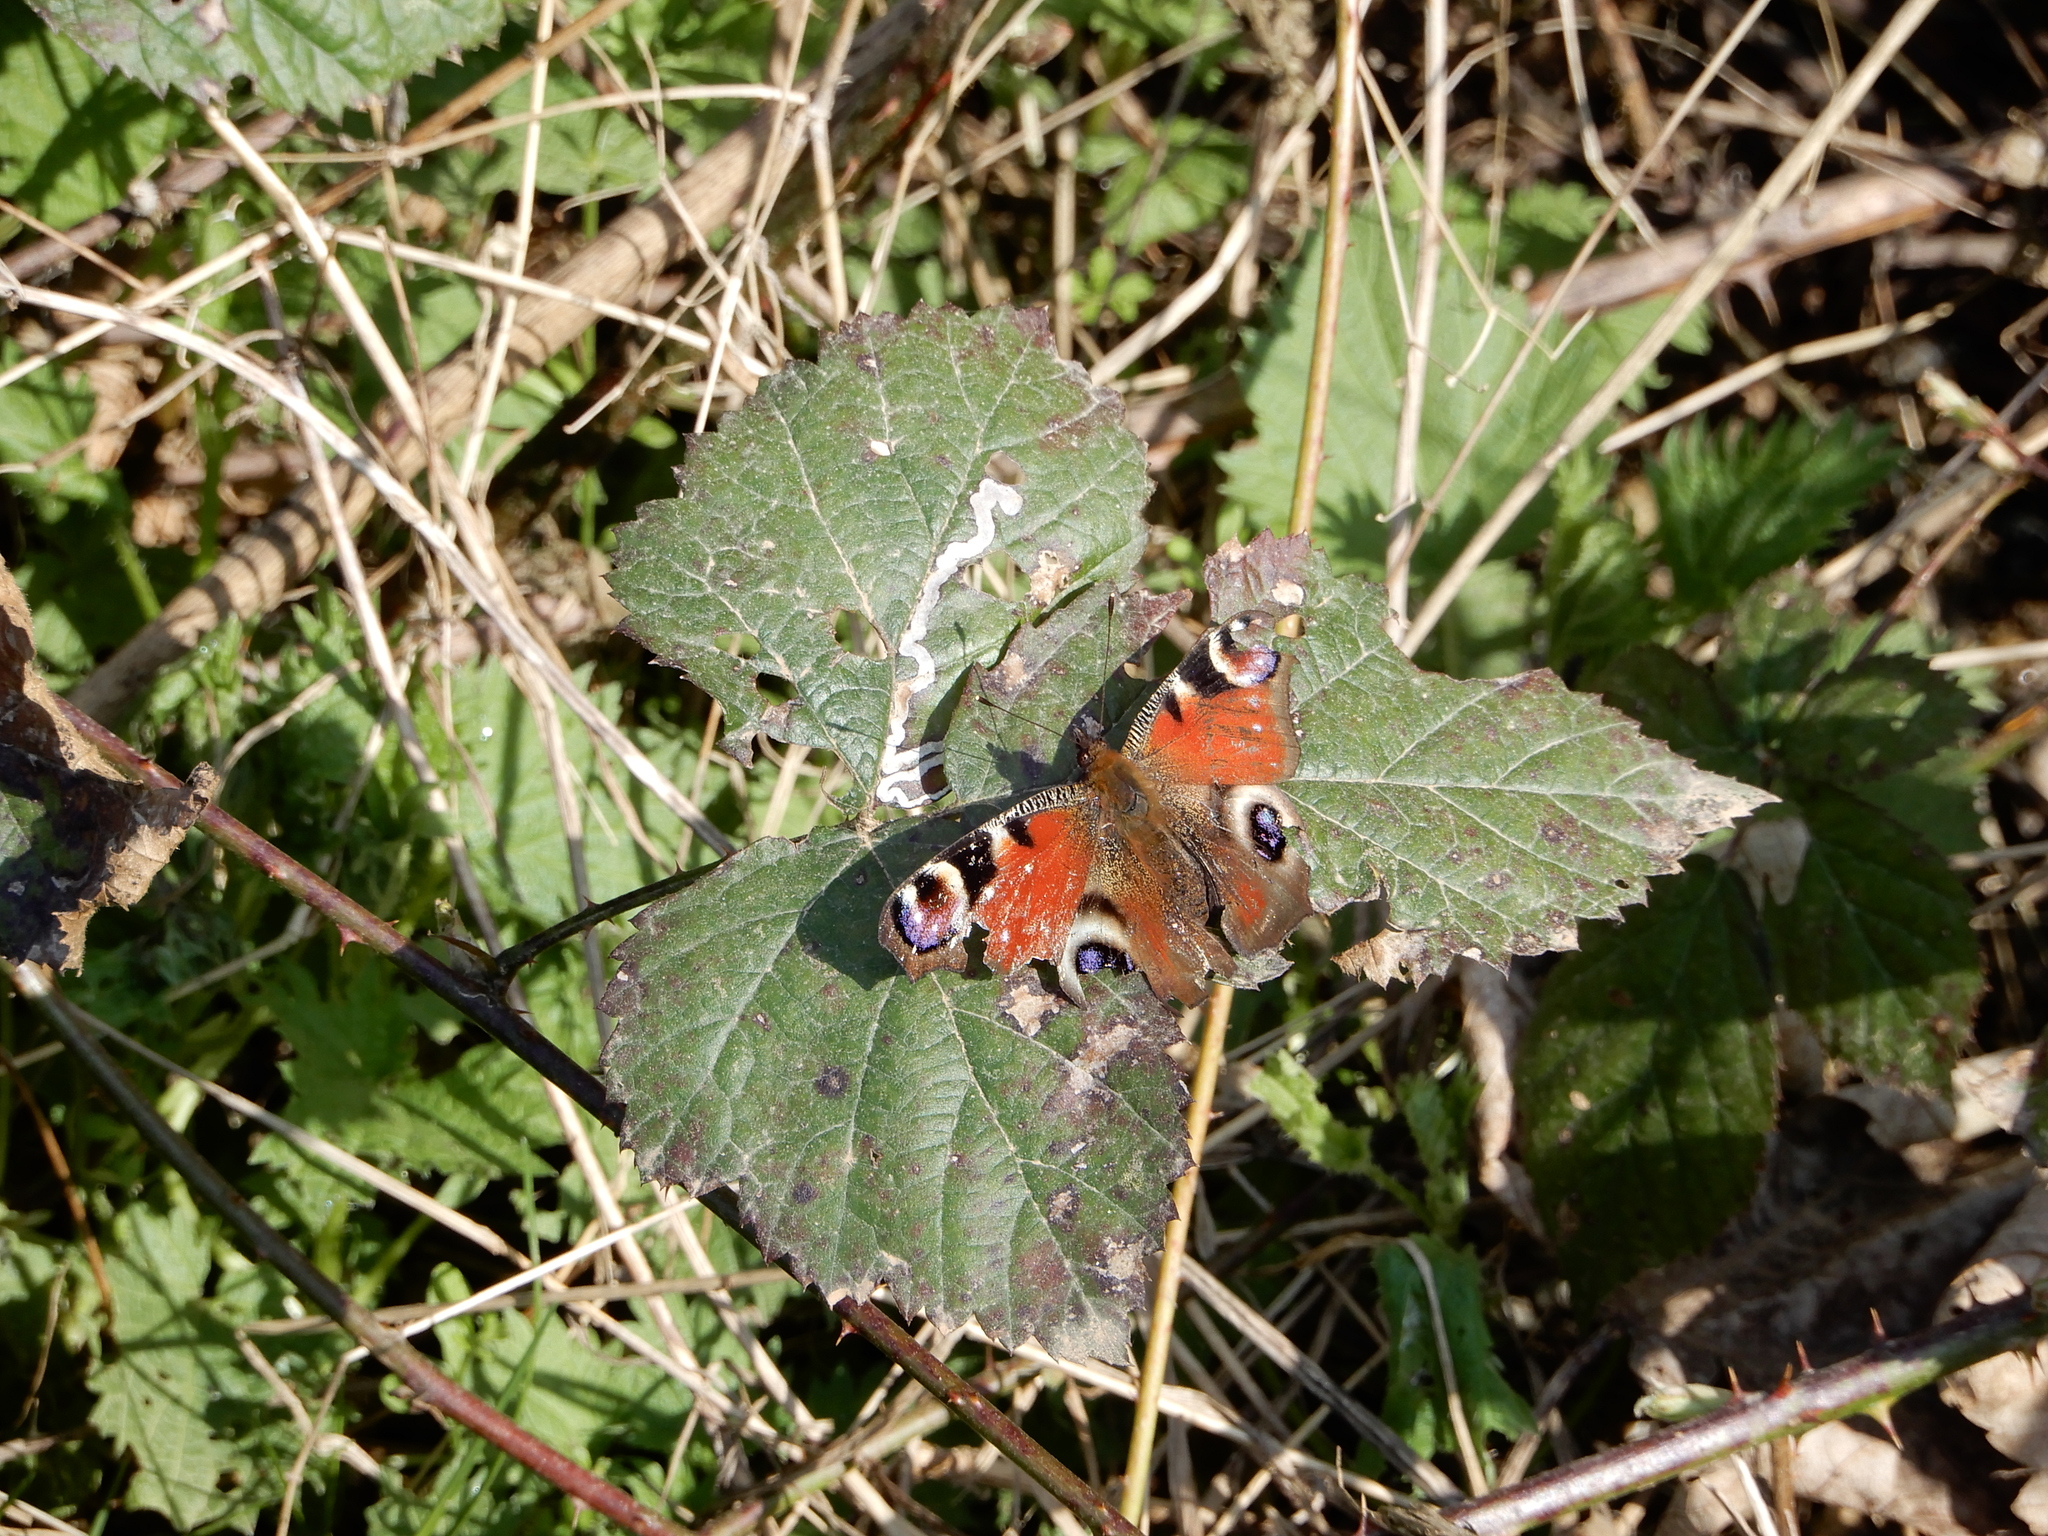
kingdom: Animalia
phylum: Arthropoda
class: Insecta
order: Lepidoptera
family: Nymphalidae
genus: Aglais
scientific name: Aglais io
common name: Peacock
